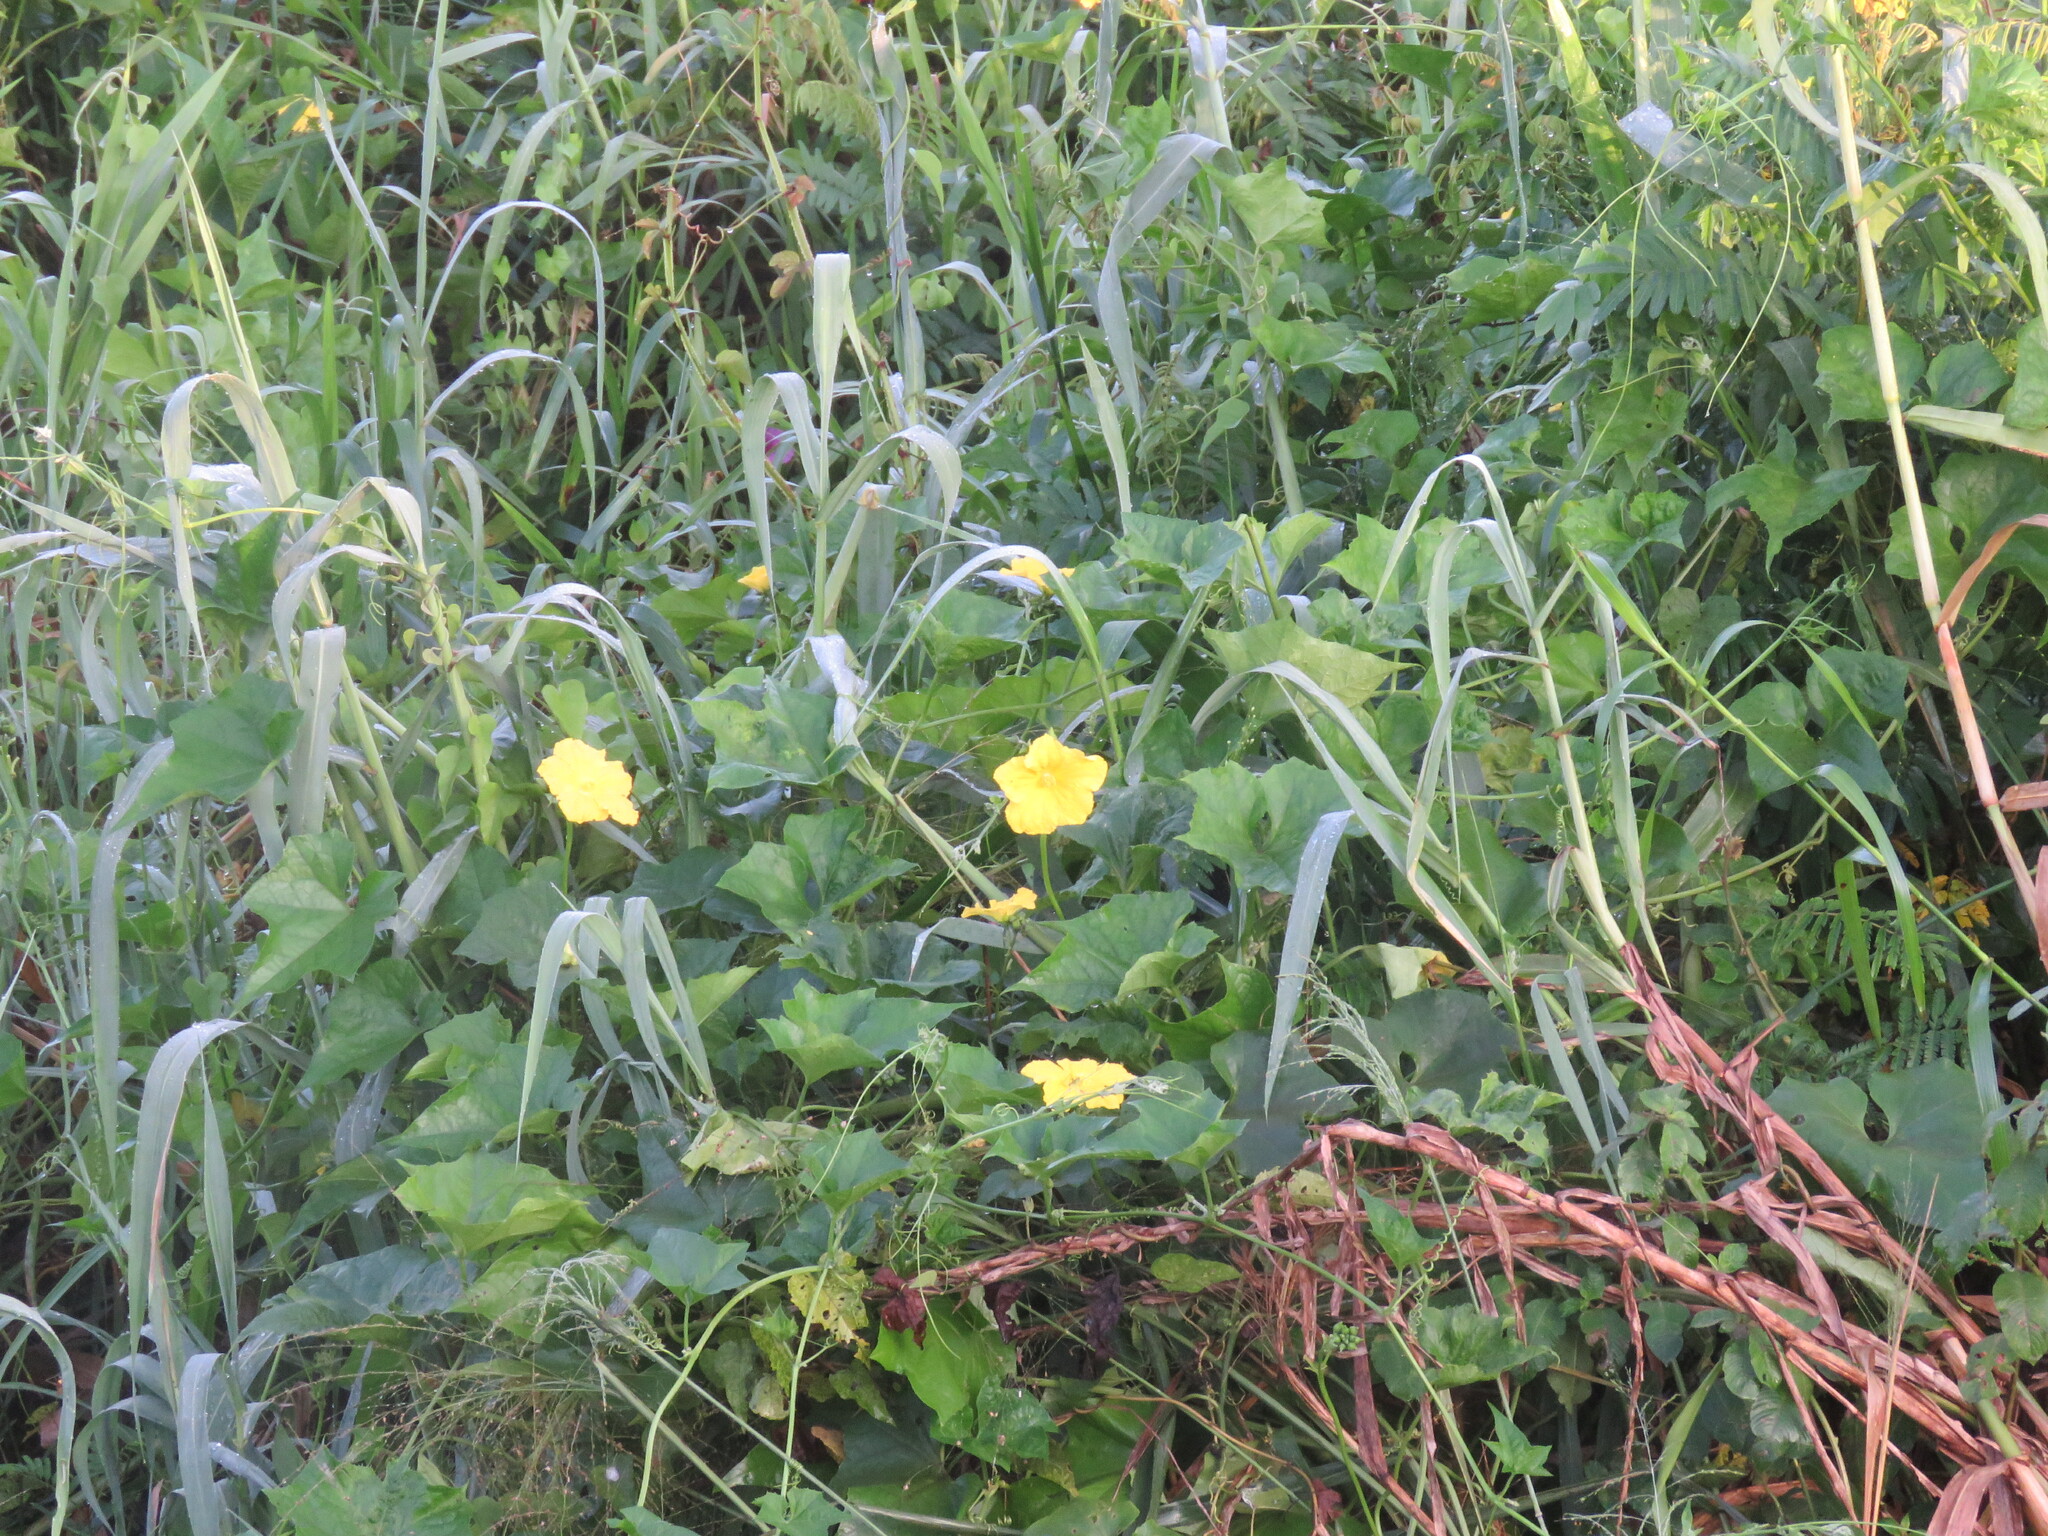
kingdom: Plantae
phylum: Tracheophyta
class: Magnoliopsida
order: Cucurbitales
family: Cucurbitaceae
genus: Luffa
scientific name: Luffa aegyptiaca
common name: Sponge gourd
